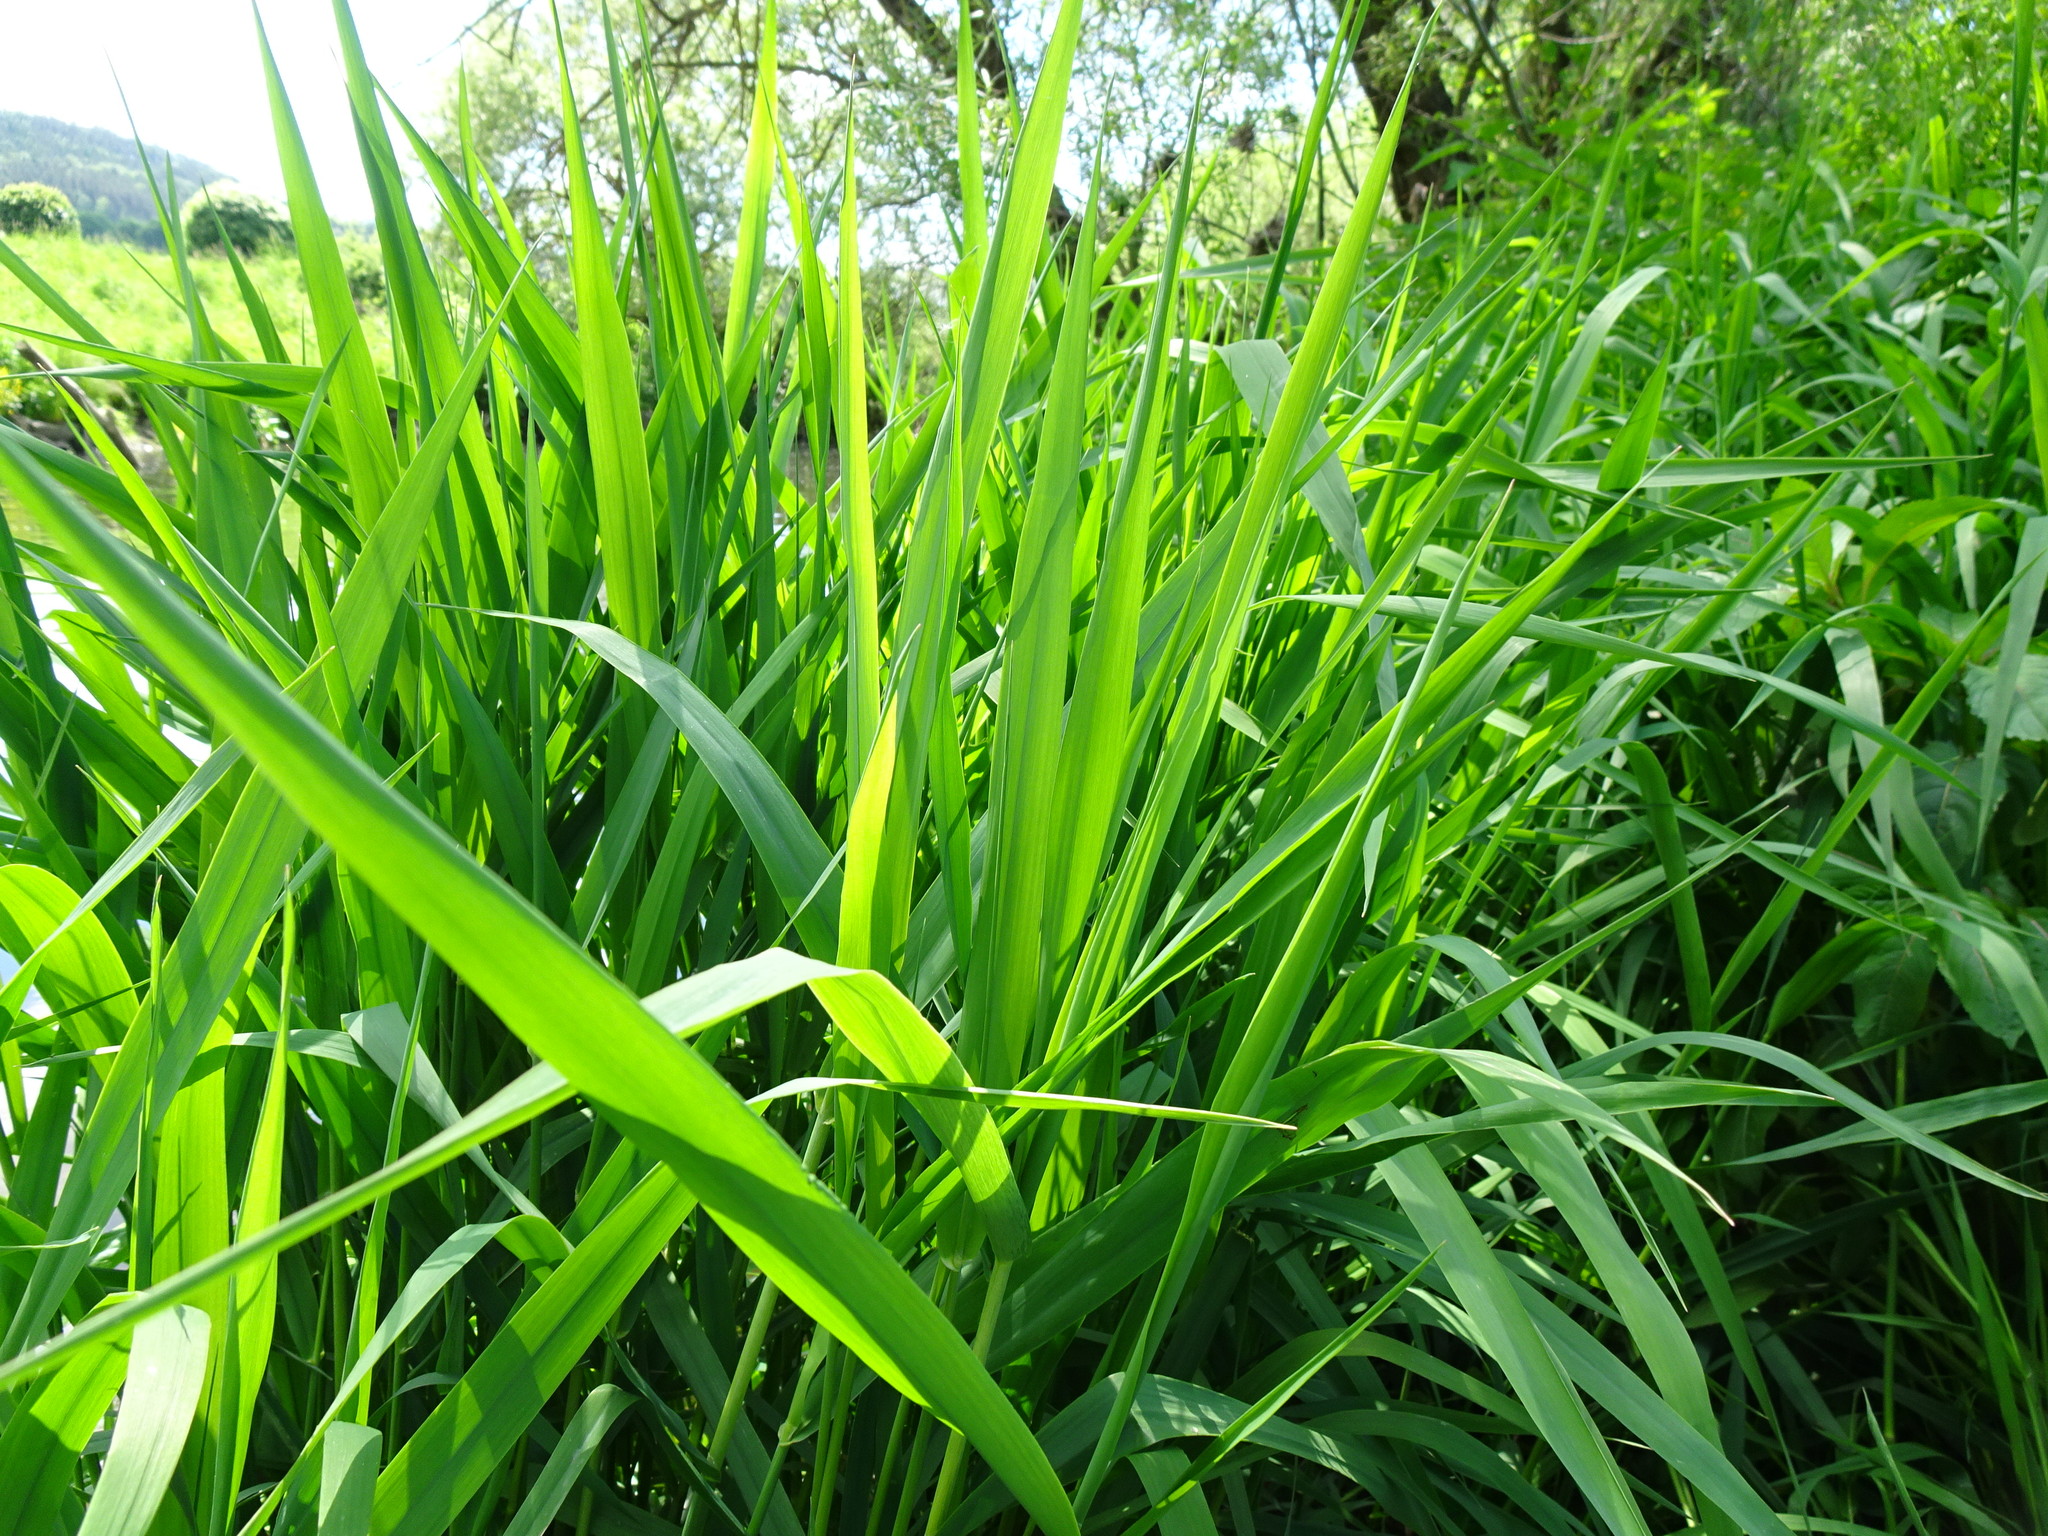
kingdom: Plantae
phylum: Tracheophyta
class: Liliopsida
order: Poales
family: Poaceae
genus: Phalaris
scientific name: Phalaris arundinacea
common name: Reed canary-grass
